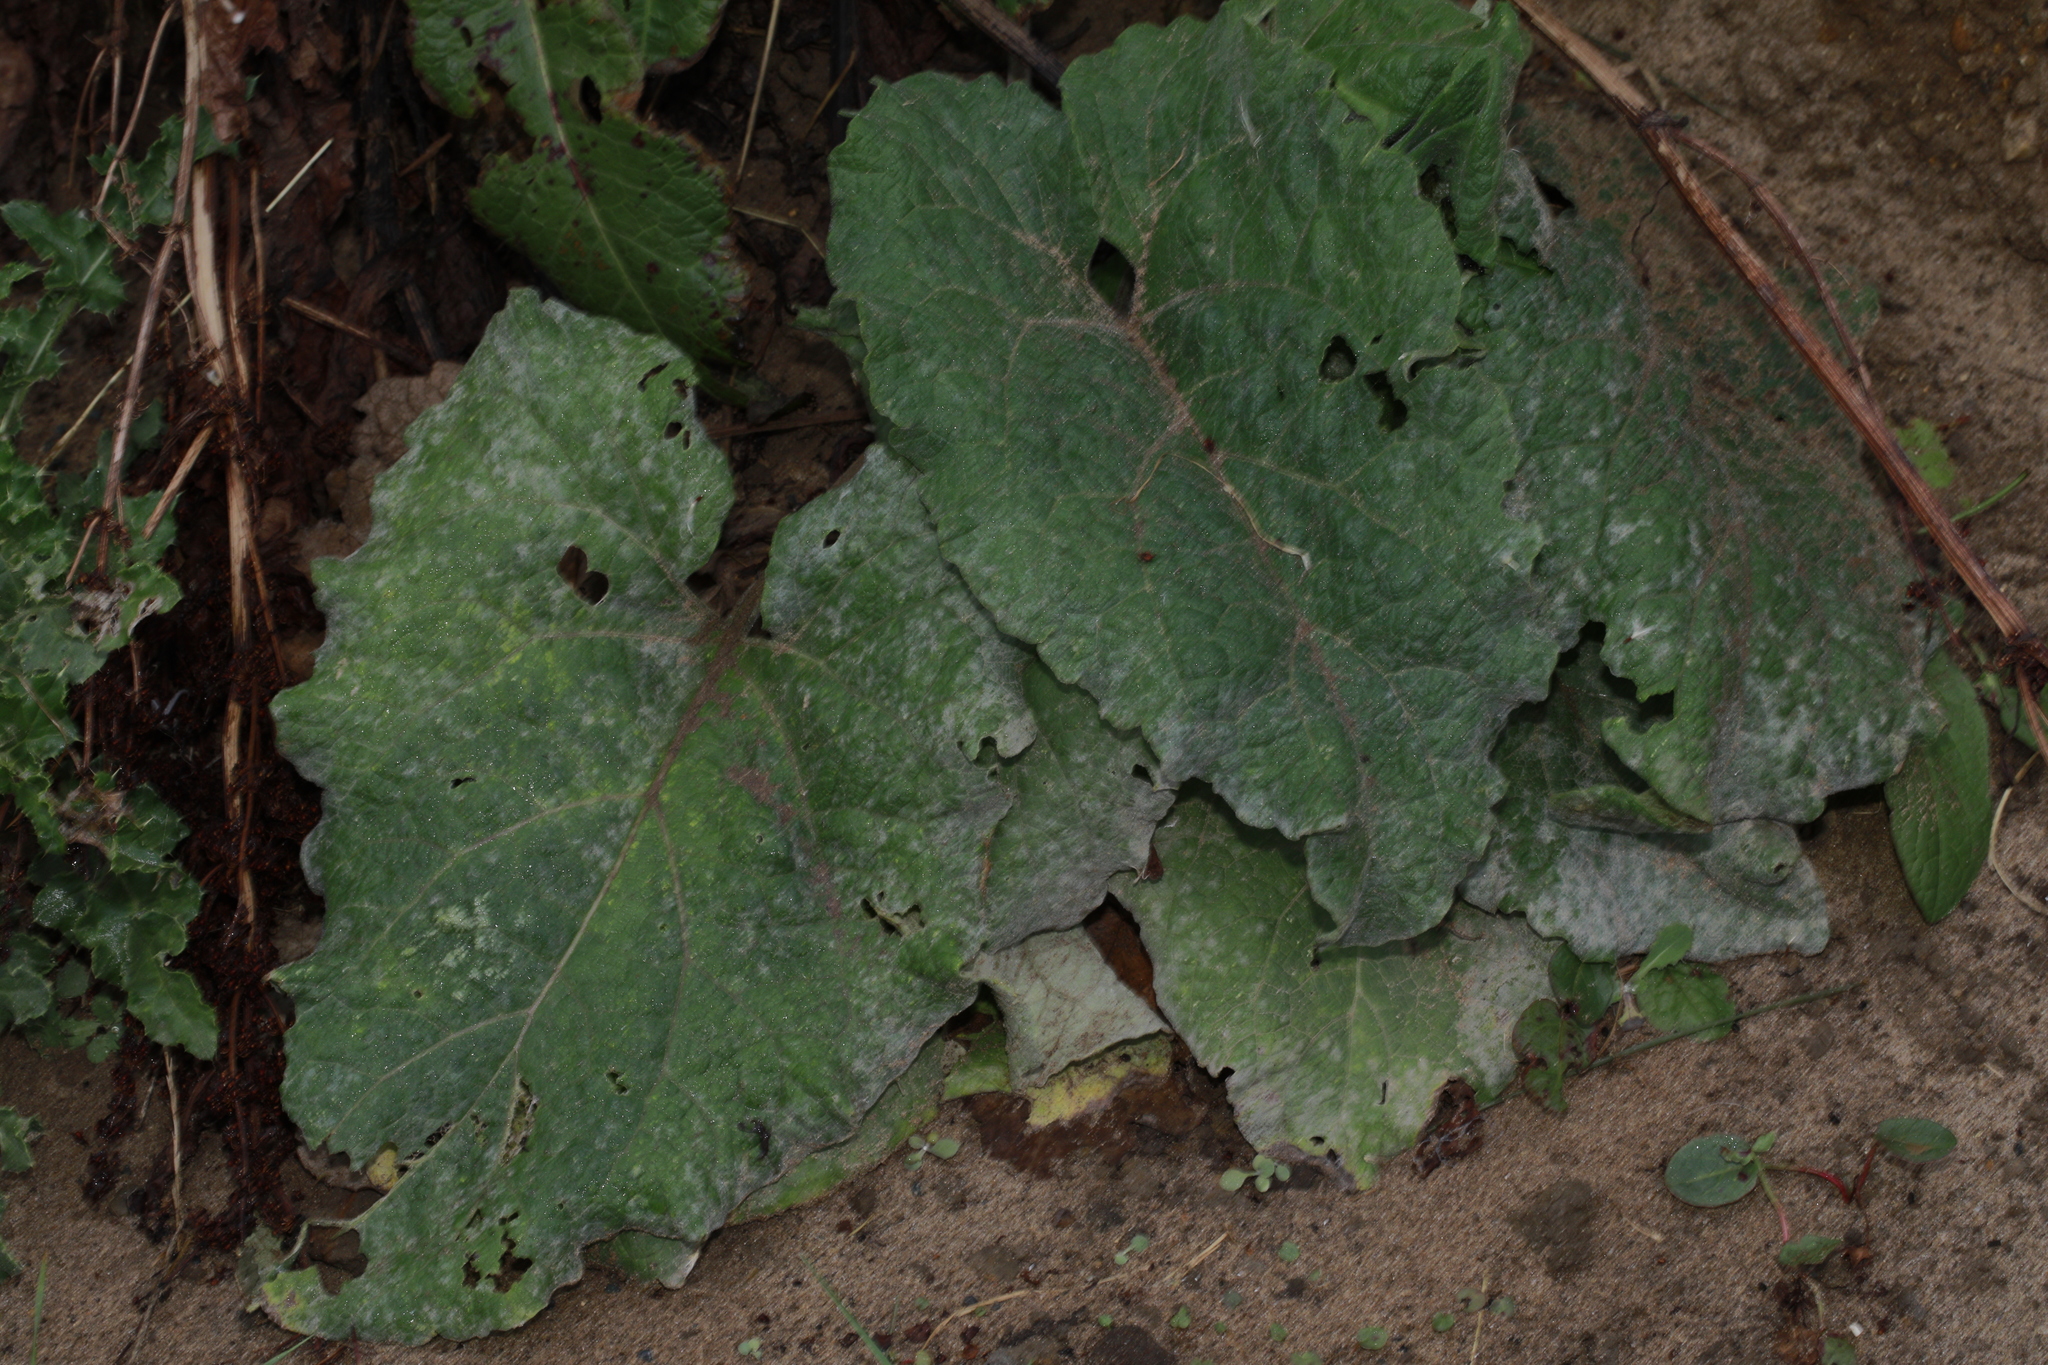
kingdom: Plantae
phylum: Tracheophyta
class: Magnoliopsida
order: Asterales
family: Asteraceae
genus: Arctium
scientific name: Arctium minus
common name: Lesser burdock
